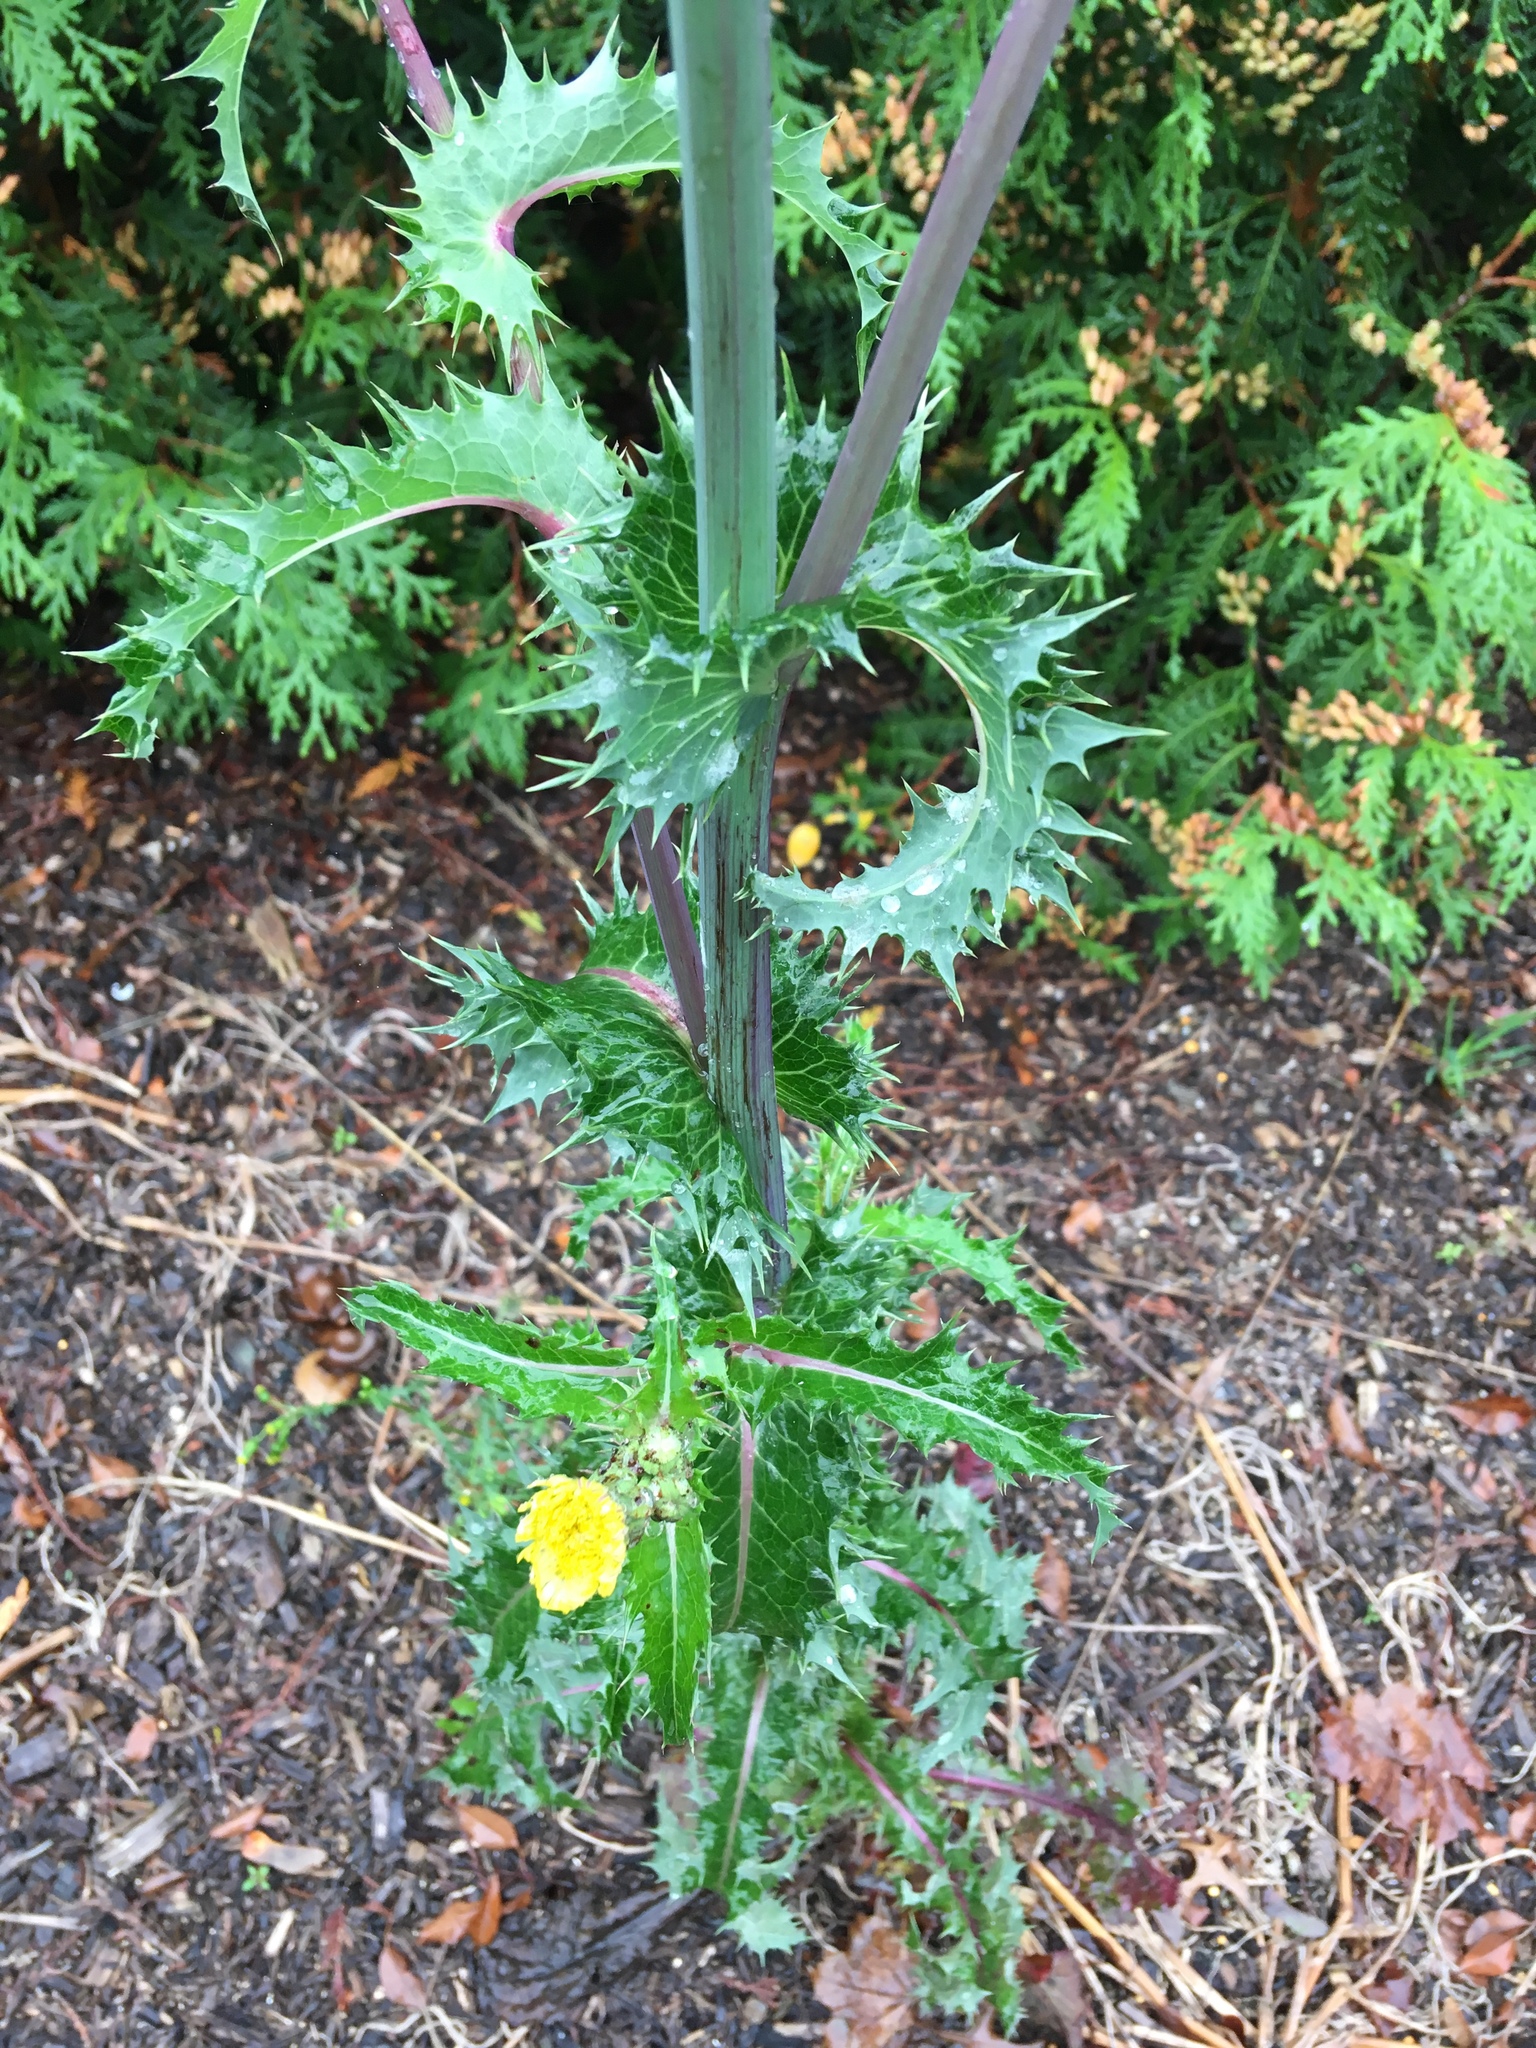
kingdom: Plantae
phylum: Tracheophyta
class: Magnoliopsida
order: Asterales
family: Asteraceae
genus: Sonchus
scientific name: Sonchus asper
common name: Prickly sow-thistle
